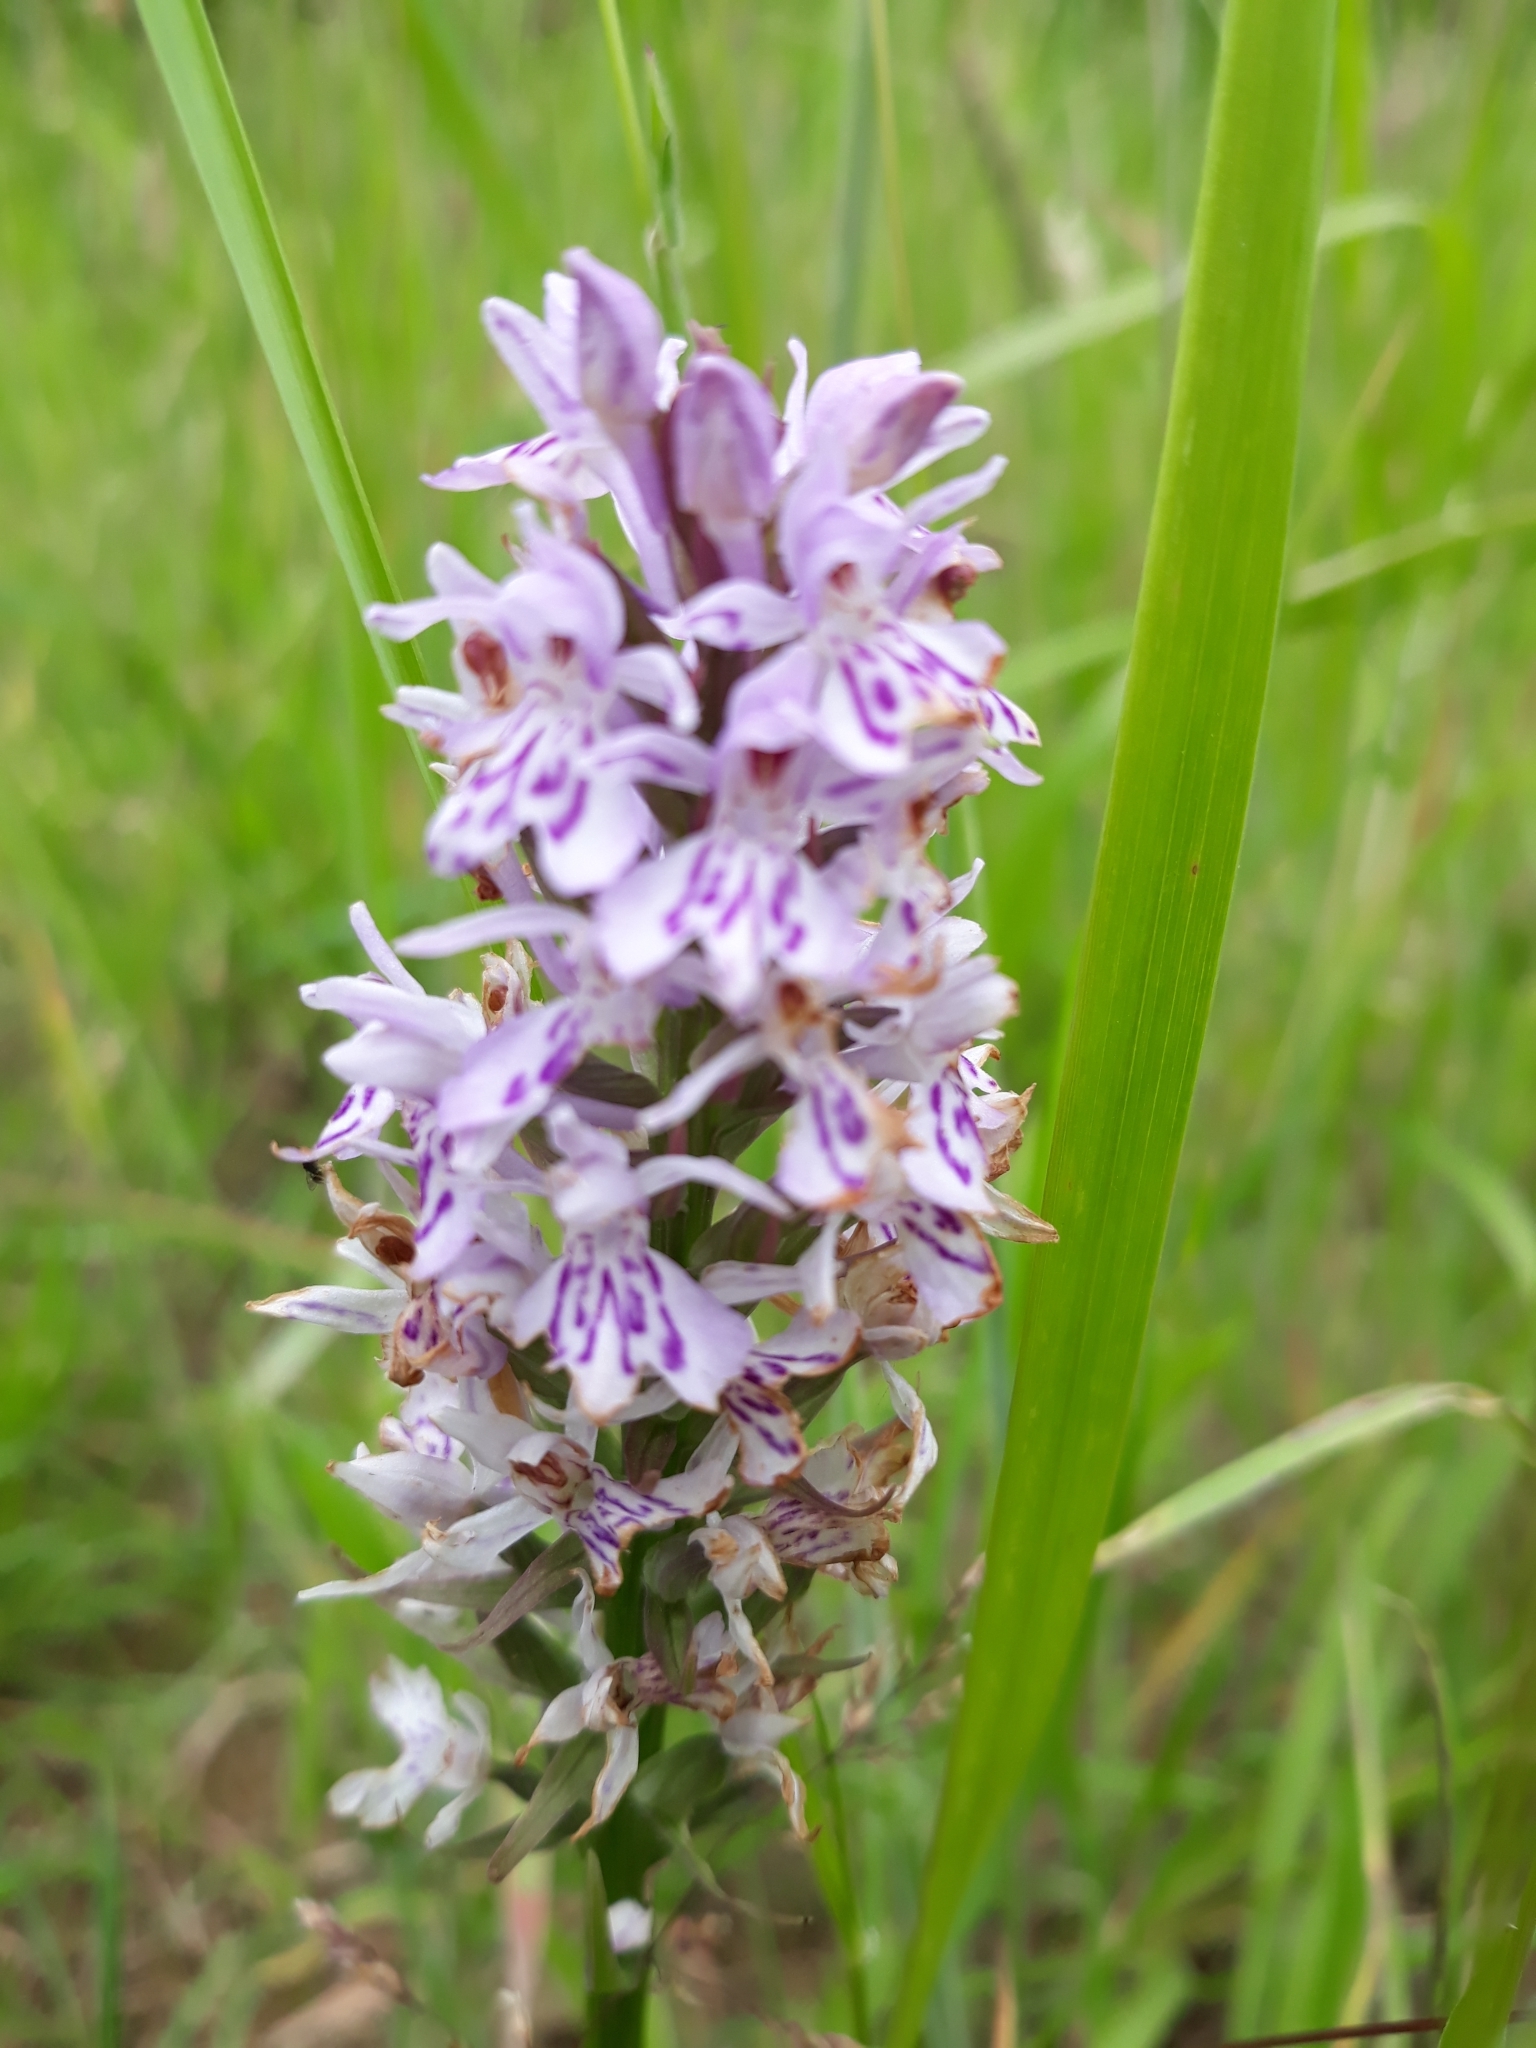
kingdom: Plantae
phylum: Tracheophyta
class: Liliopsida
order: Asparagales
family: Orchidaceae
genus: Dactylorhiza
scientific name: Dactylorhiza maculata
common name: Heath spotted-orchid
